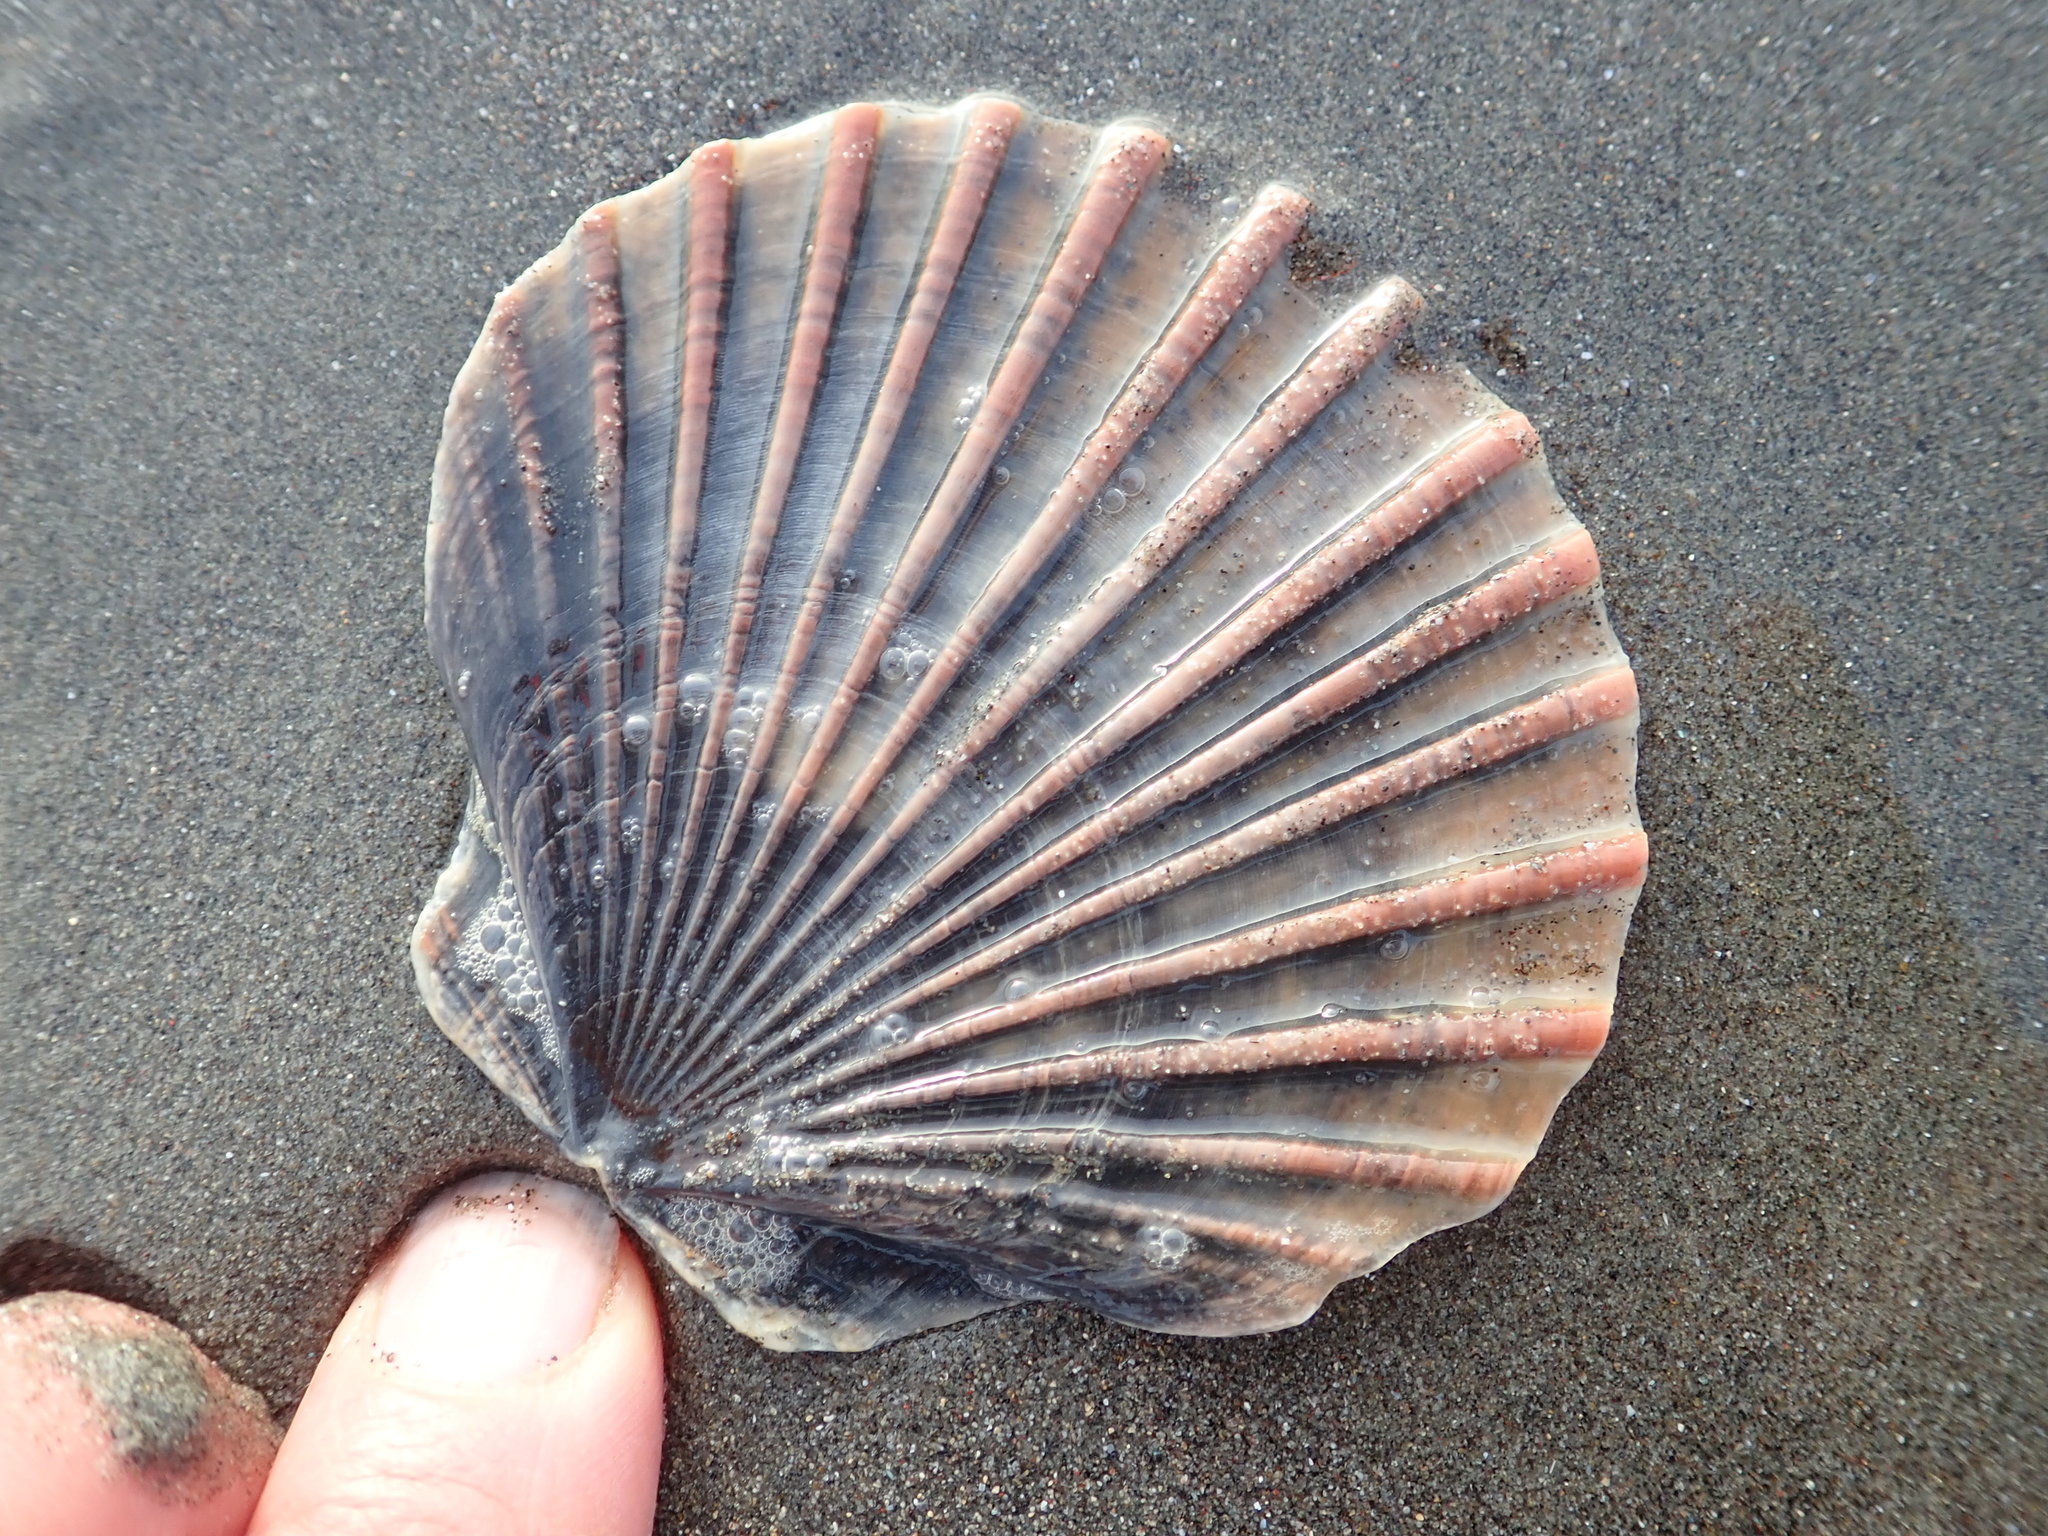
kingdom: Animalia
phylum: Mollusca
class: Bivalvia
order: Pectinida
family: Pectinidae
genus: Pecten
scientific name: Pecten novaezelandiae
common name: New zealand scallop
